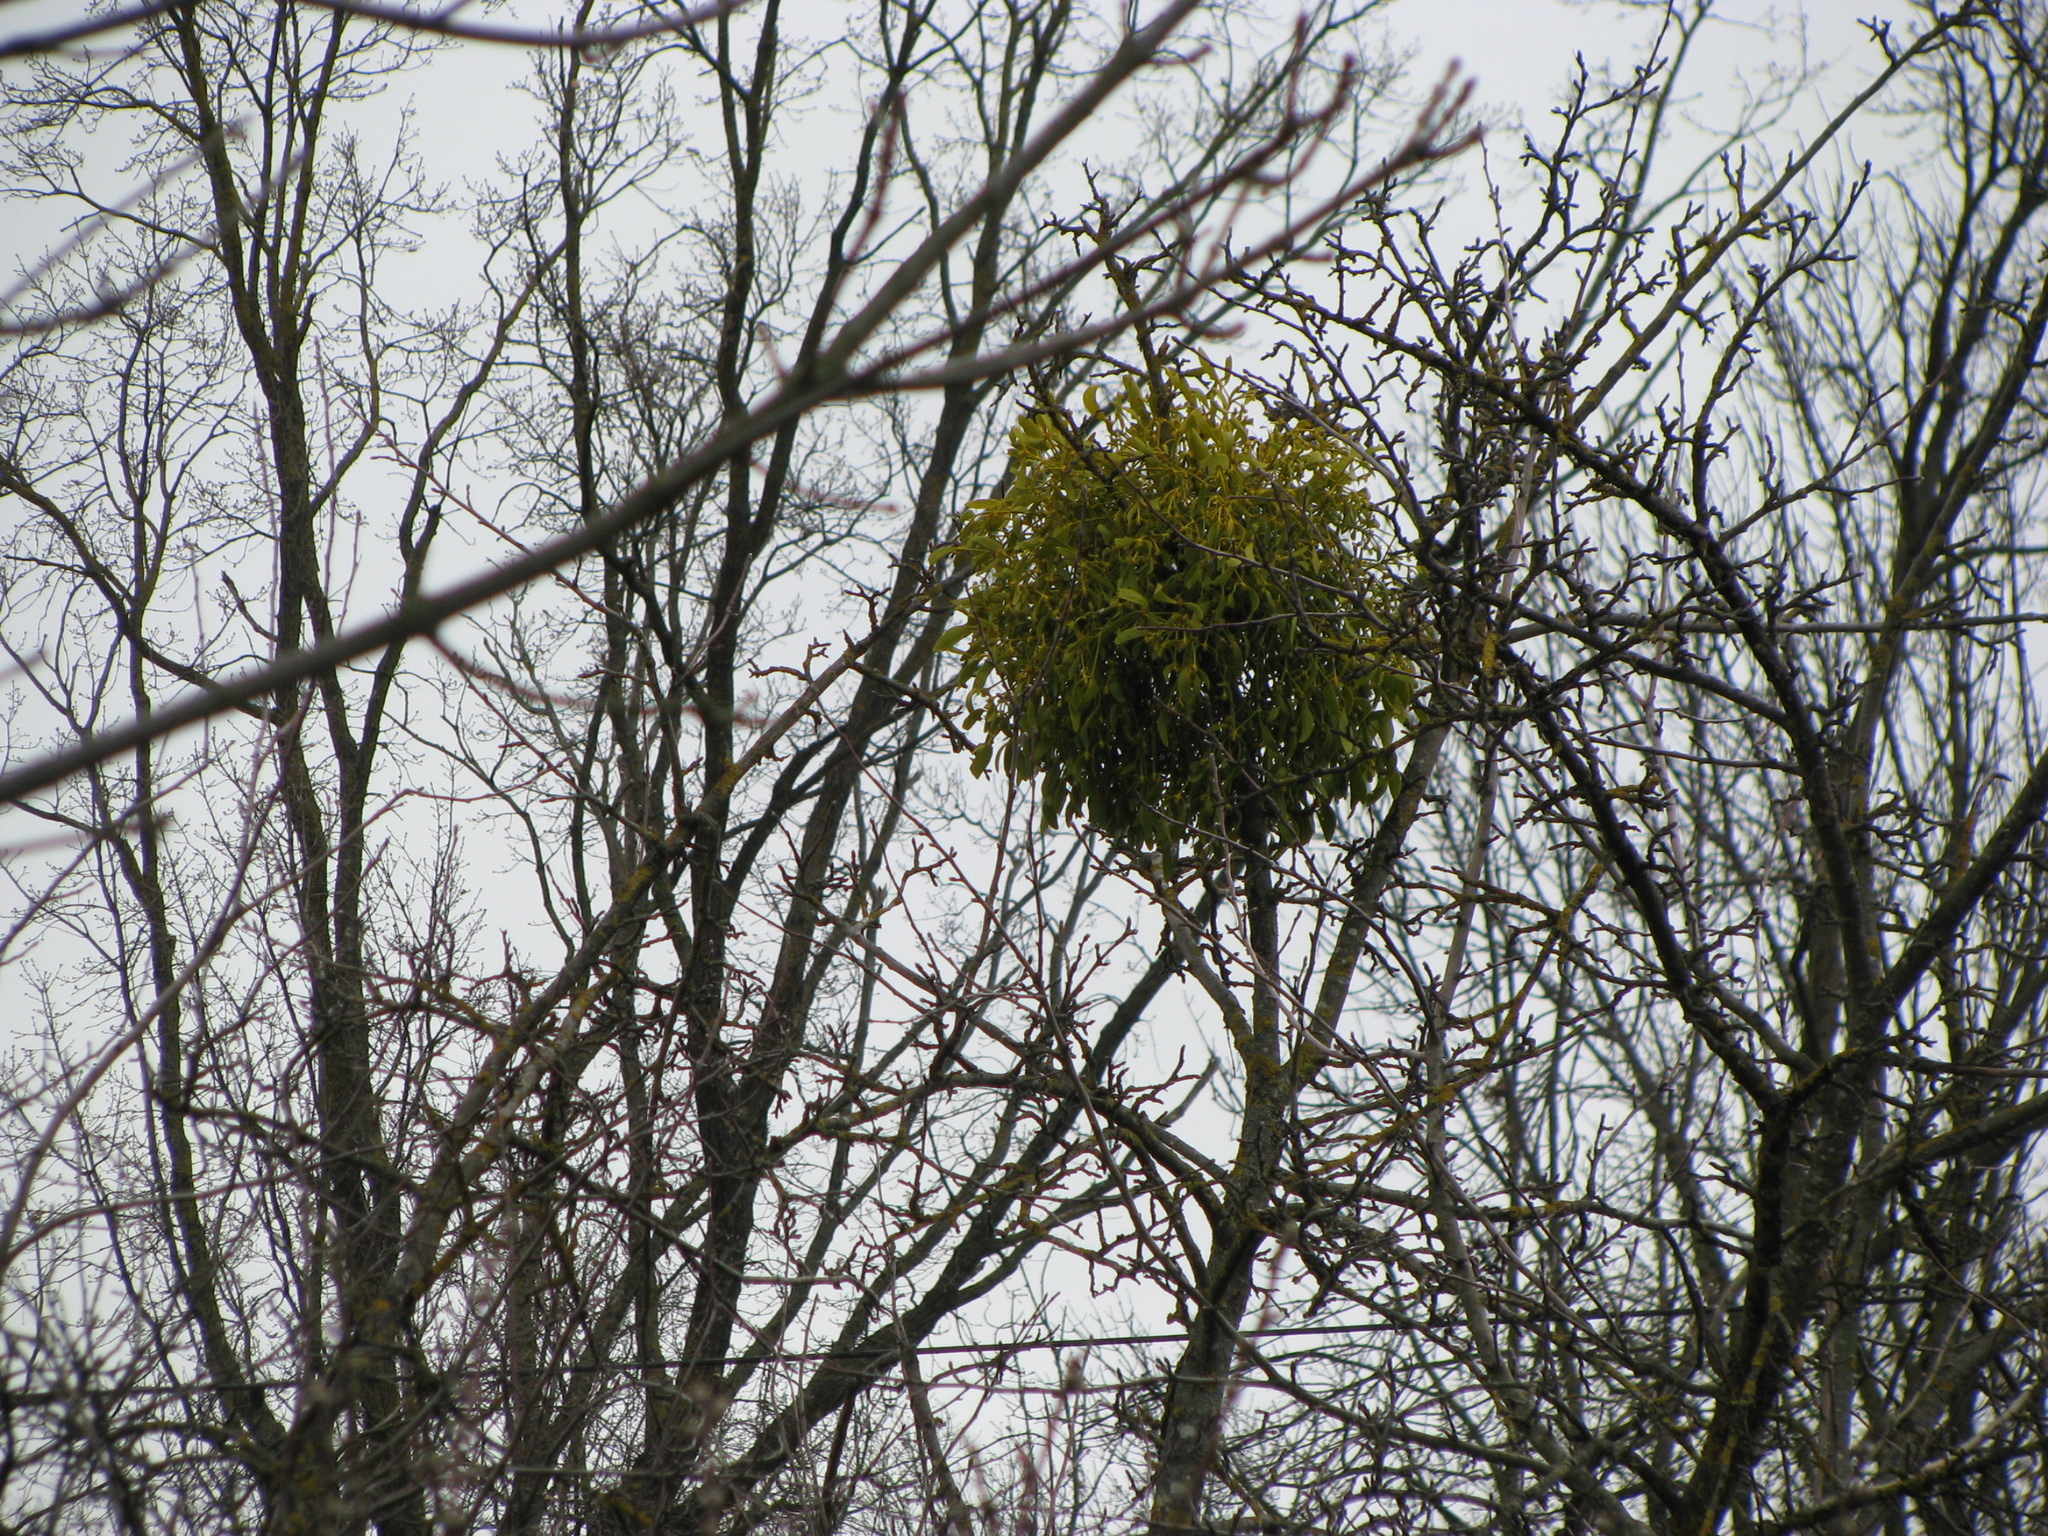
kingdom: Plantae
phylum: Tracheophyta
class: Magnoliopsida
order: Santalales
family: Viscaceae
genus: Viscum
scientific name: Viscum album
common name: Mistletoe
